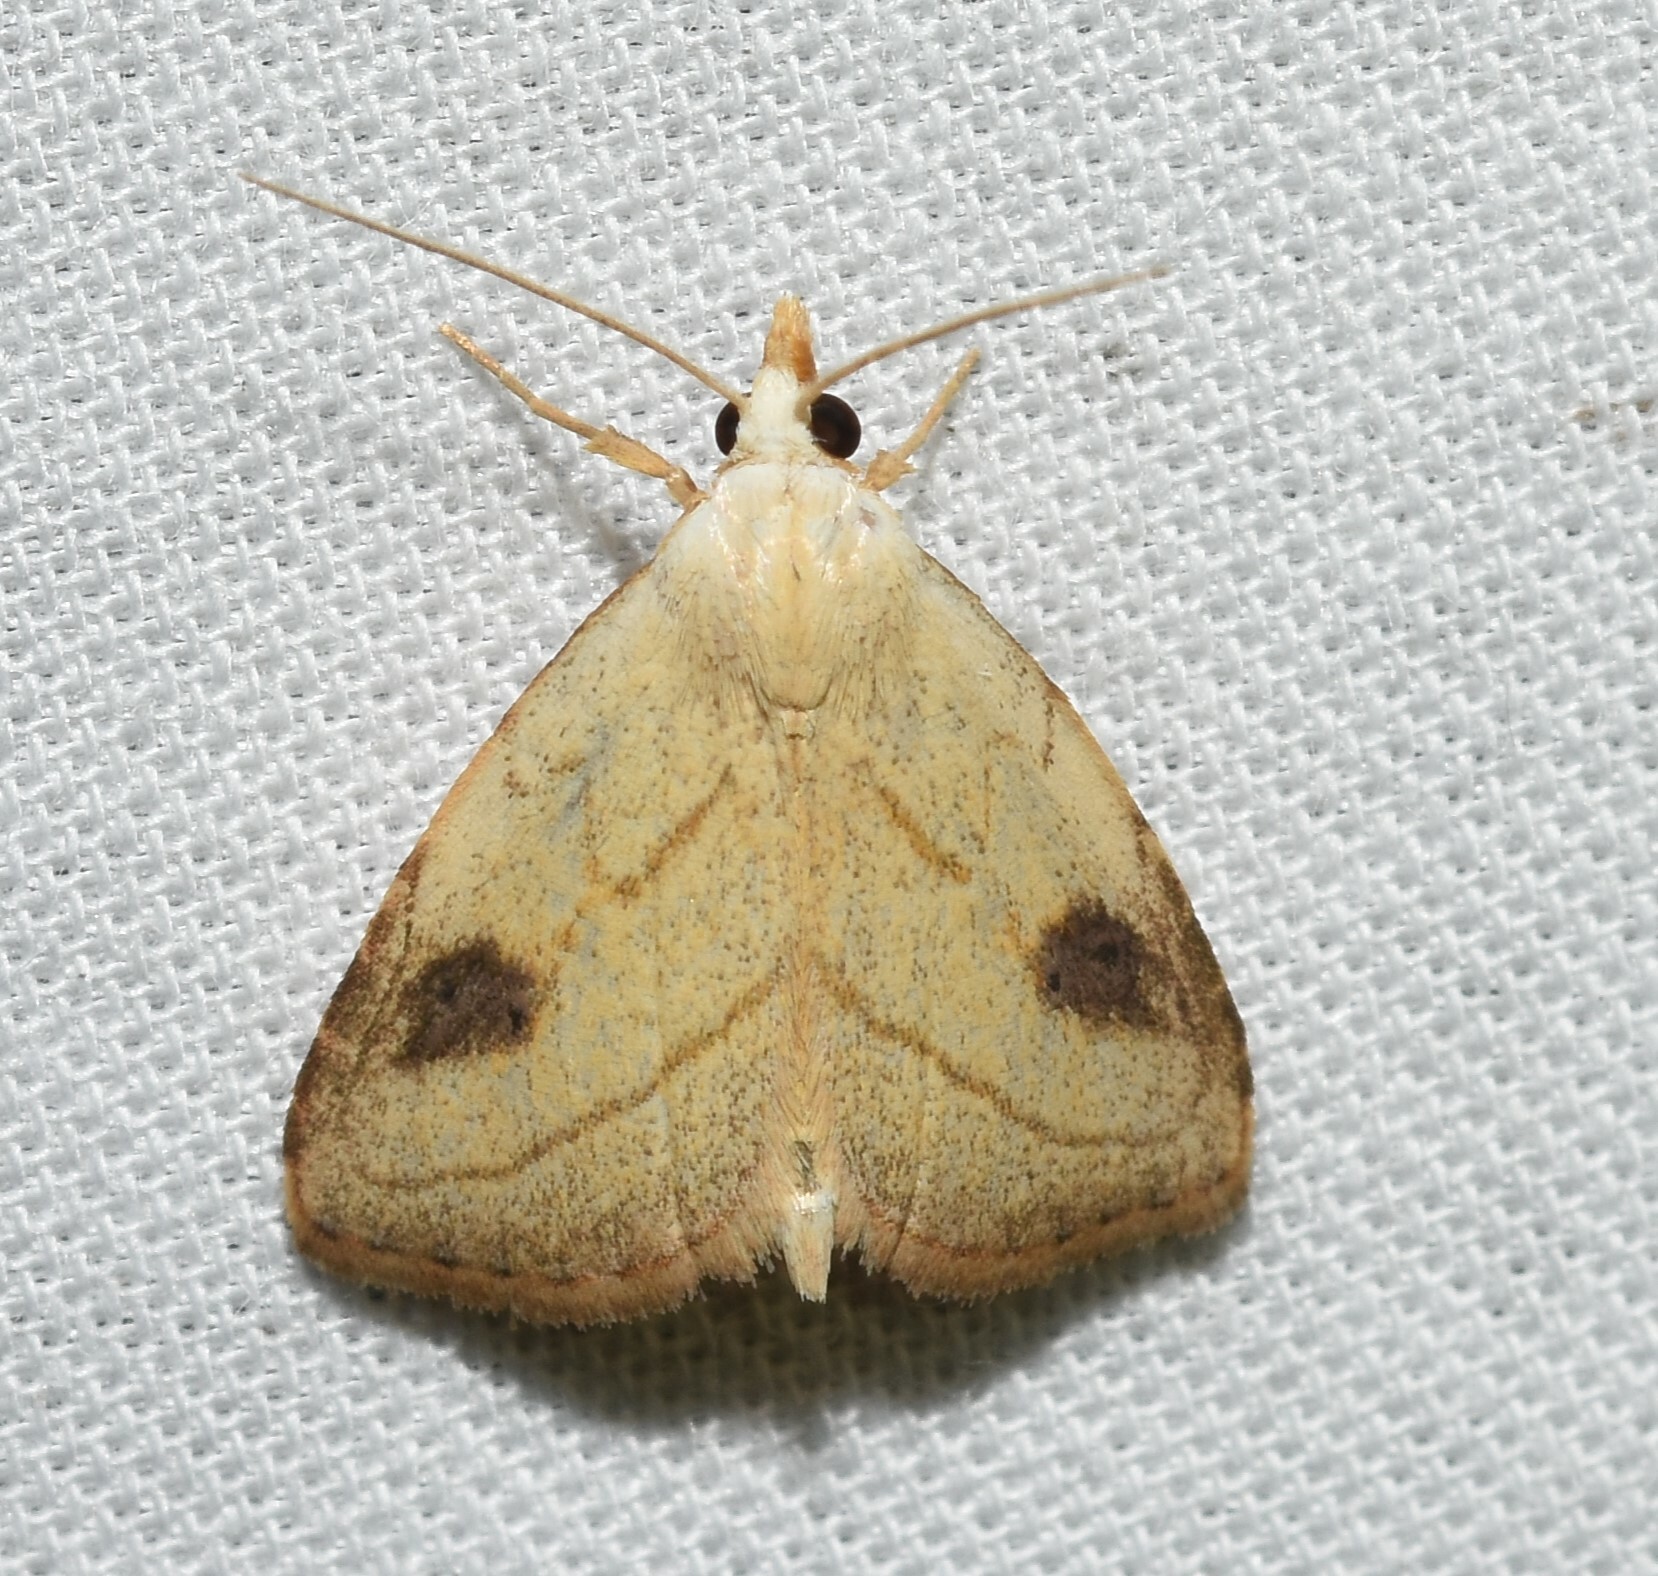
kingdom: Animalia
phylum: Arthropoda
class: Insecta
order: Lepidoptera
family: Erebidae
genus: Rivula
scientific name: Rivula propinqualis
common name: Spotted grass moth
